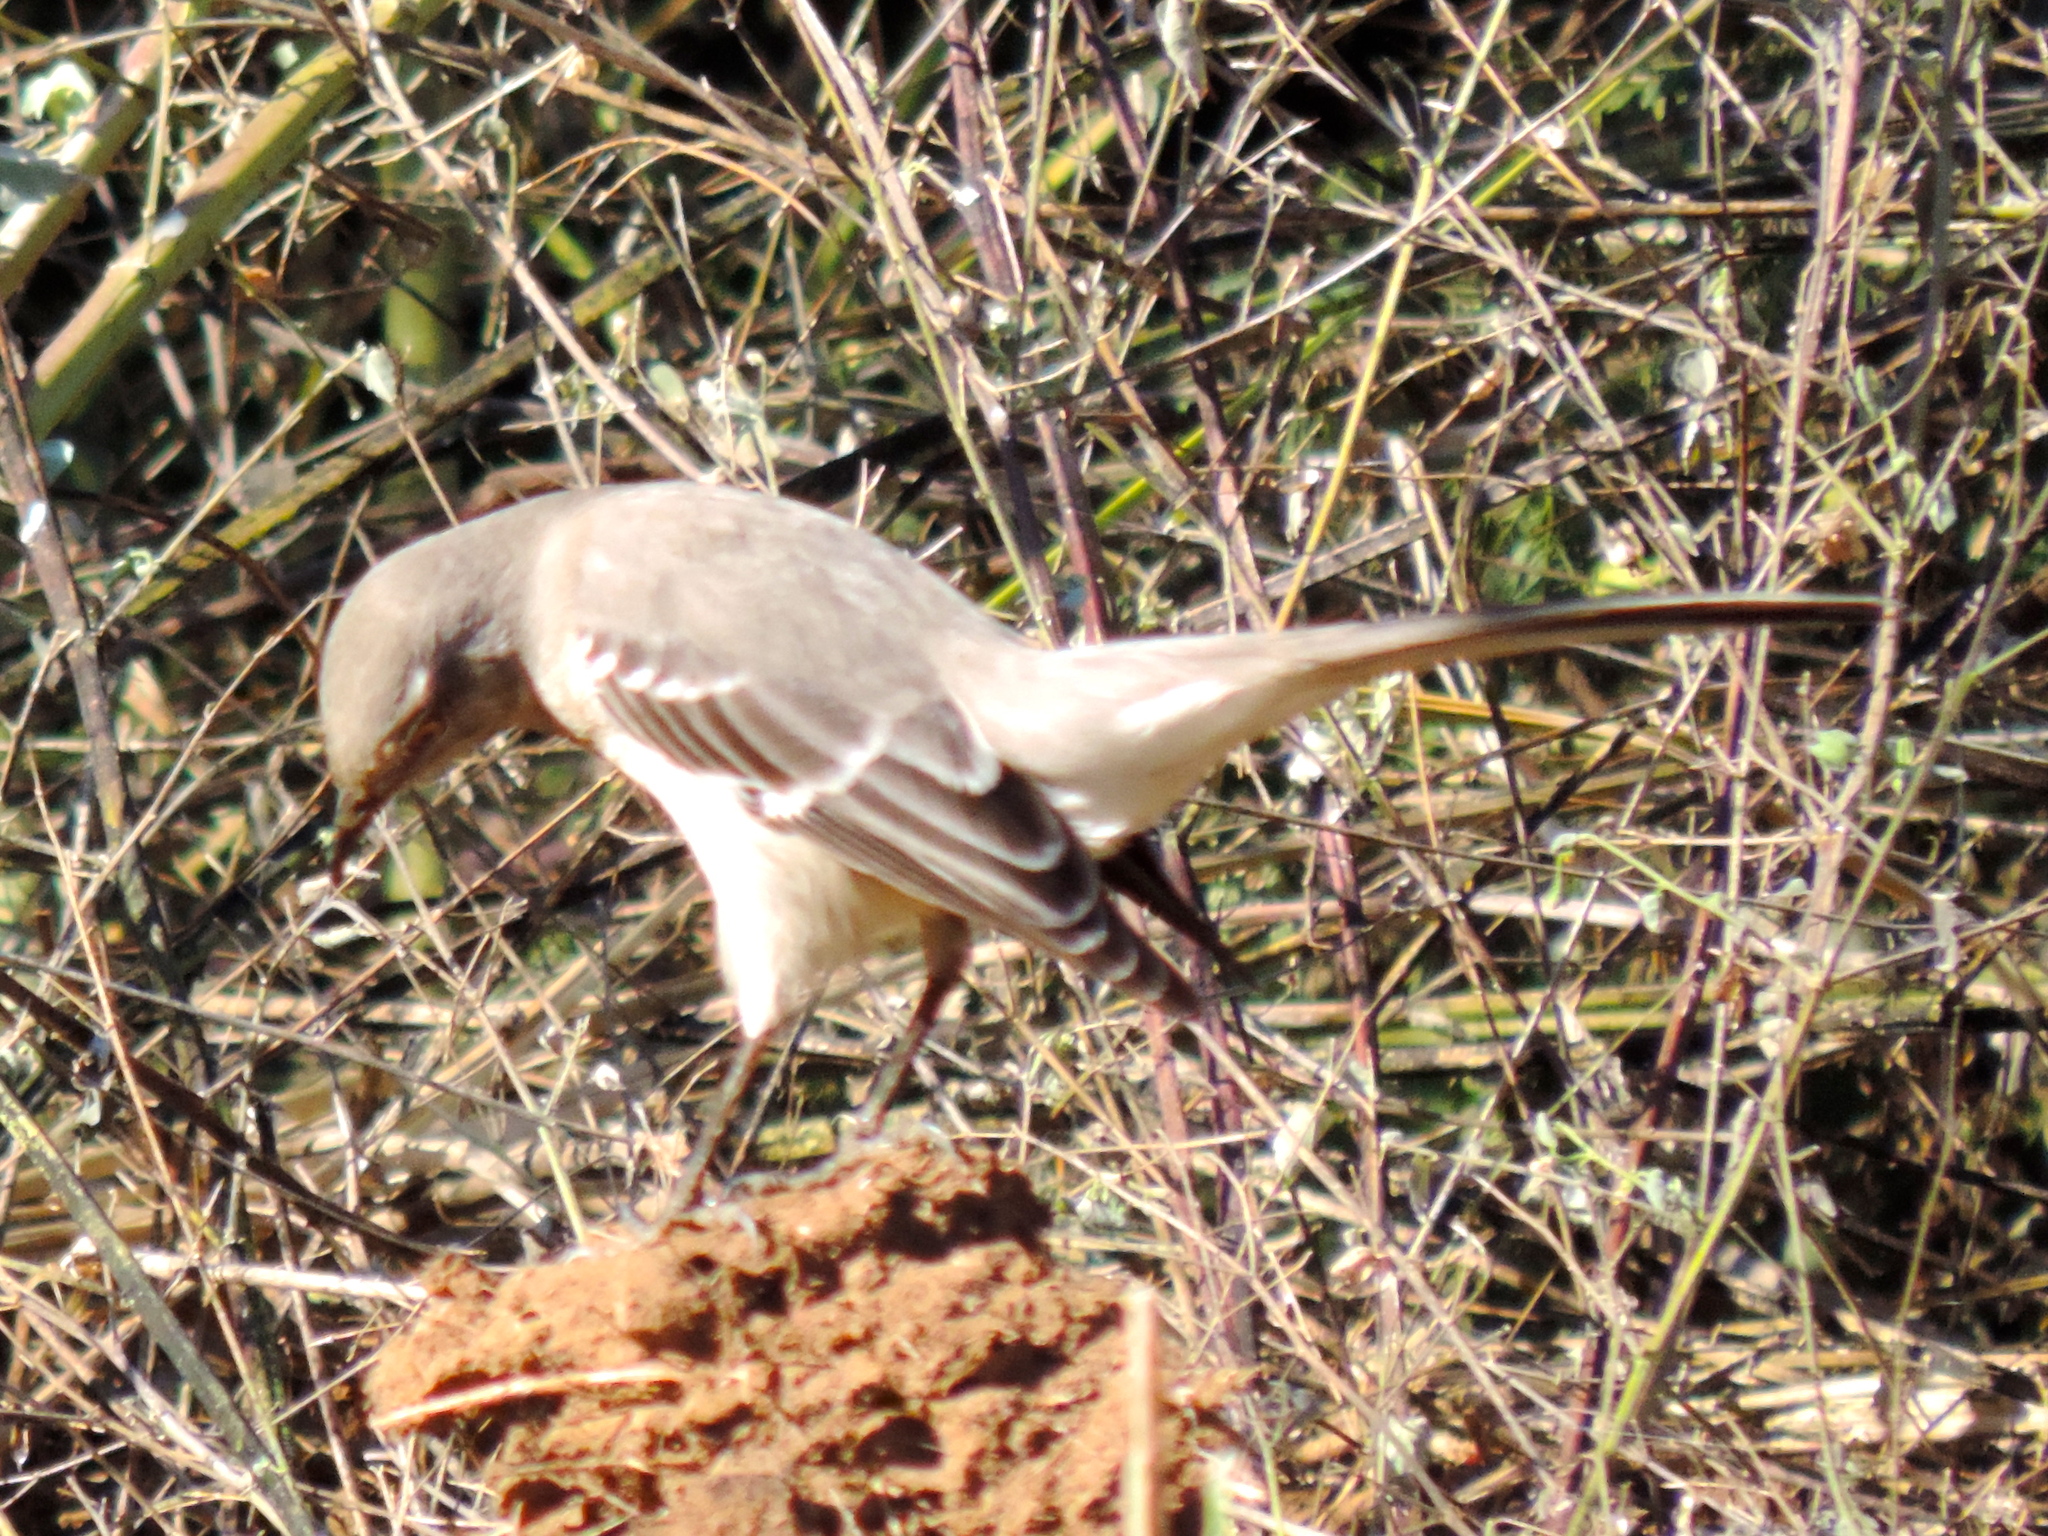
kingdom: Animalia
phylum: Chordata
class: Aves
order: Passeriformes
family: Mimidae
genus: Mimus
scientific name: Mimus polyglottos
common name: Northern mockingbird
